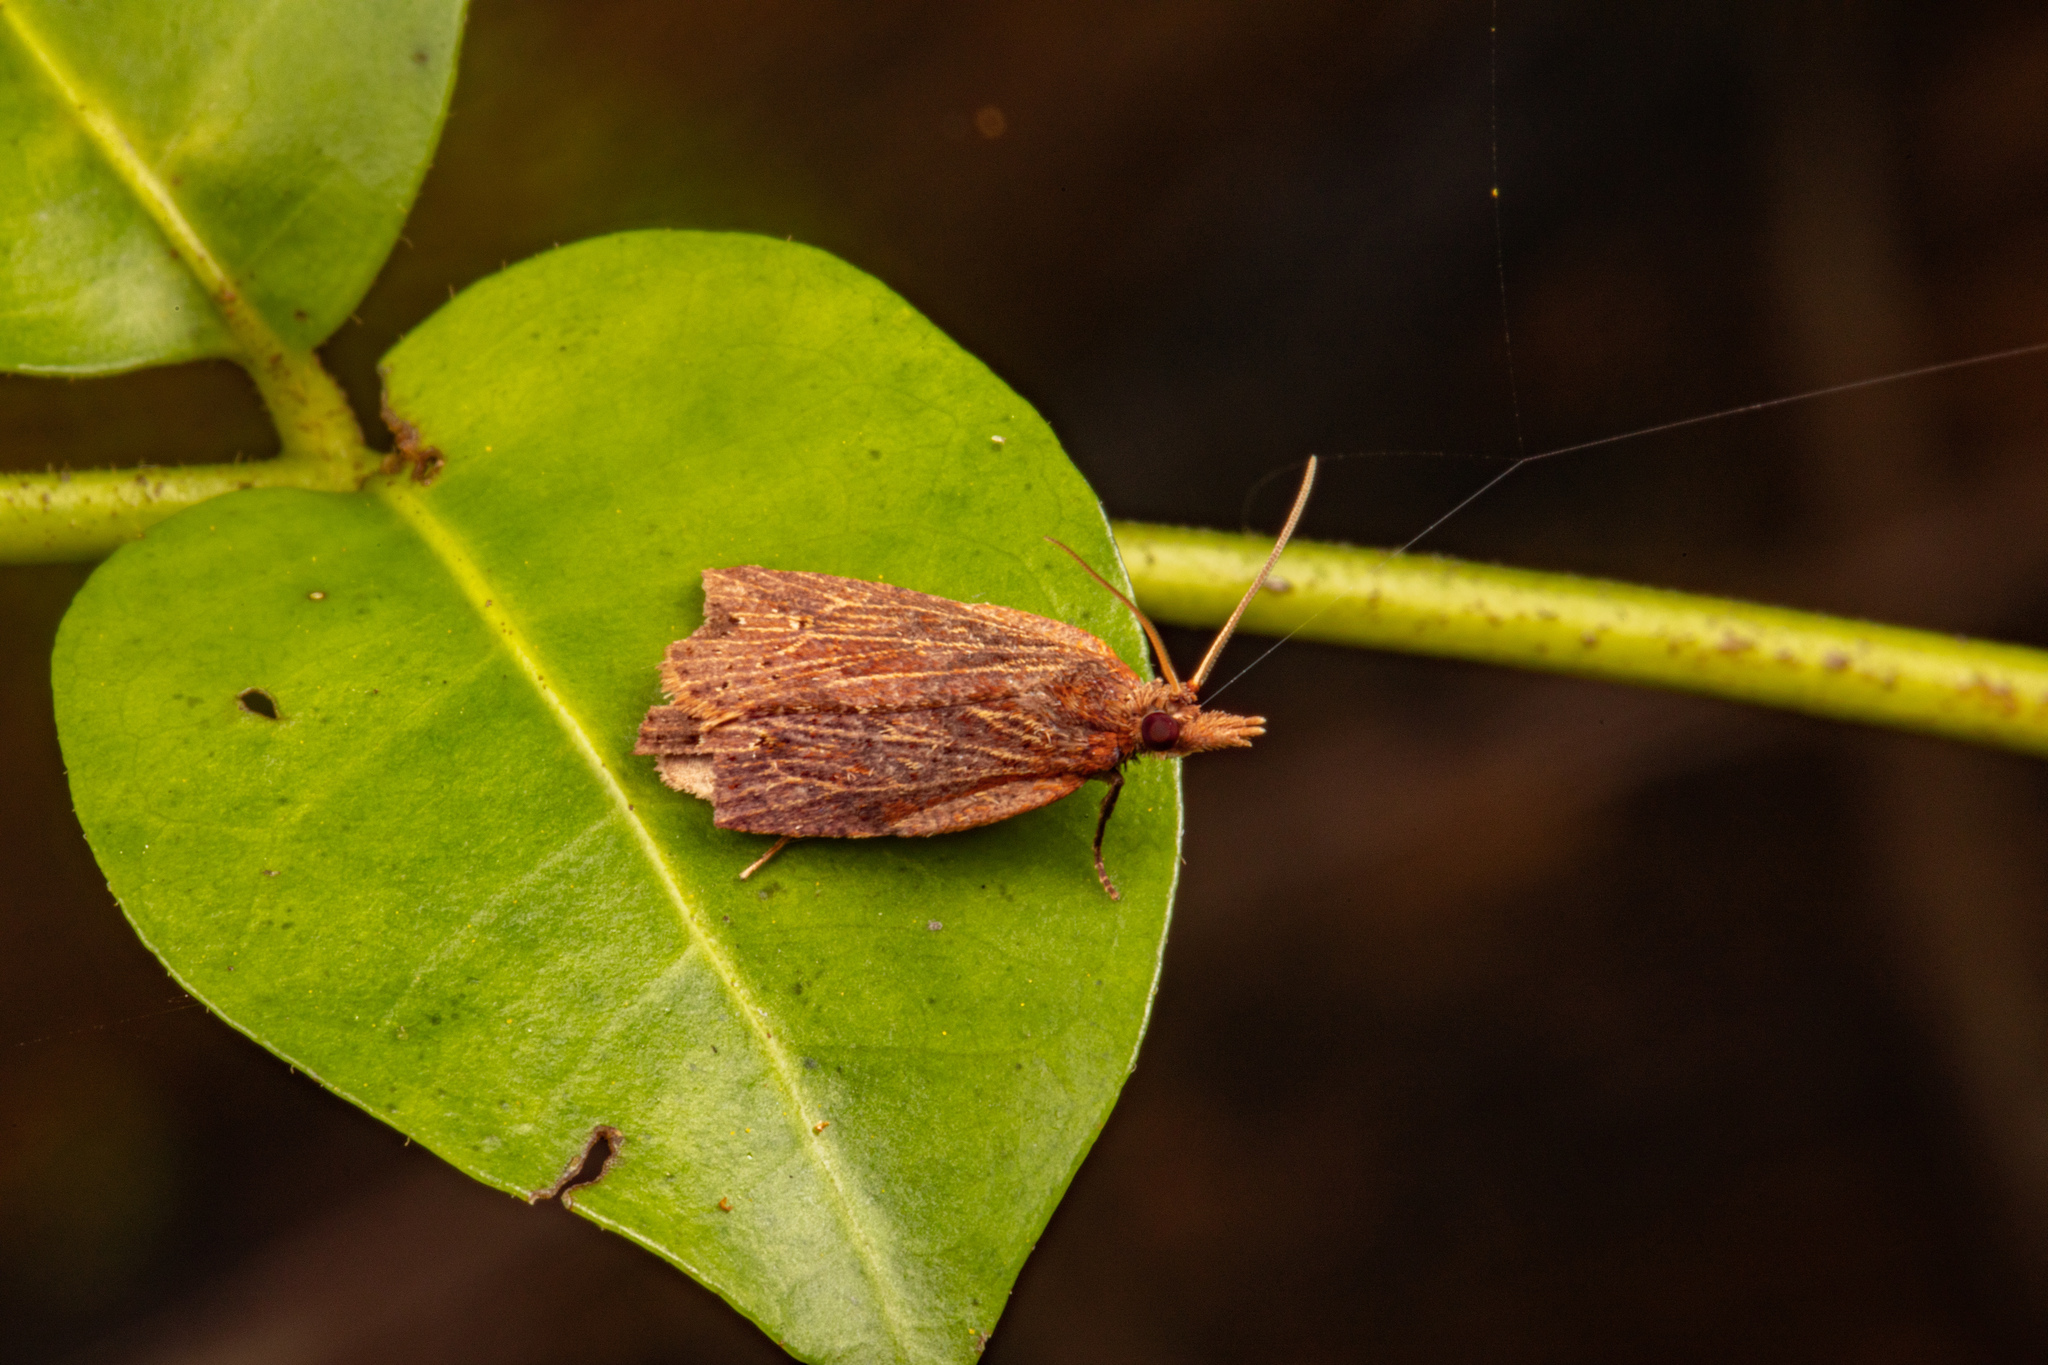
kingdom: Animalia
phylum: Arthropoda
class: Insecta
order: Lepidoptera
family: Tortricidae
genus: Planotortrix
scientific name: Planotortrix notophaea
